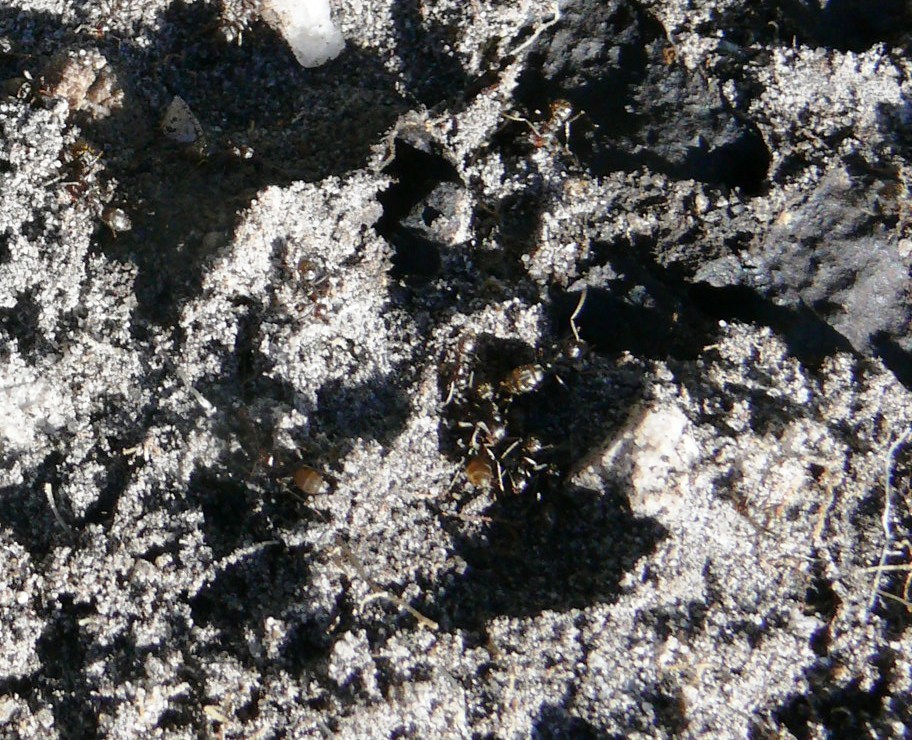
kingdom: Animalia
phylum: Arthropoda
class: Insecta
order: Hymenoptera
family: Formicidae
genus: Anoplolepis
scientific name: Anoplolepis steingroeveri
